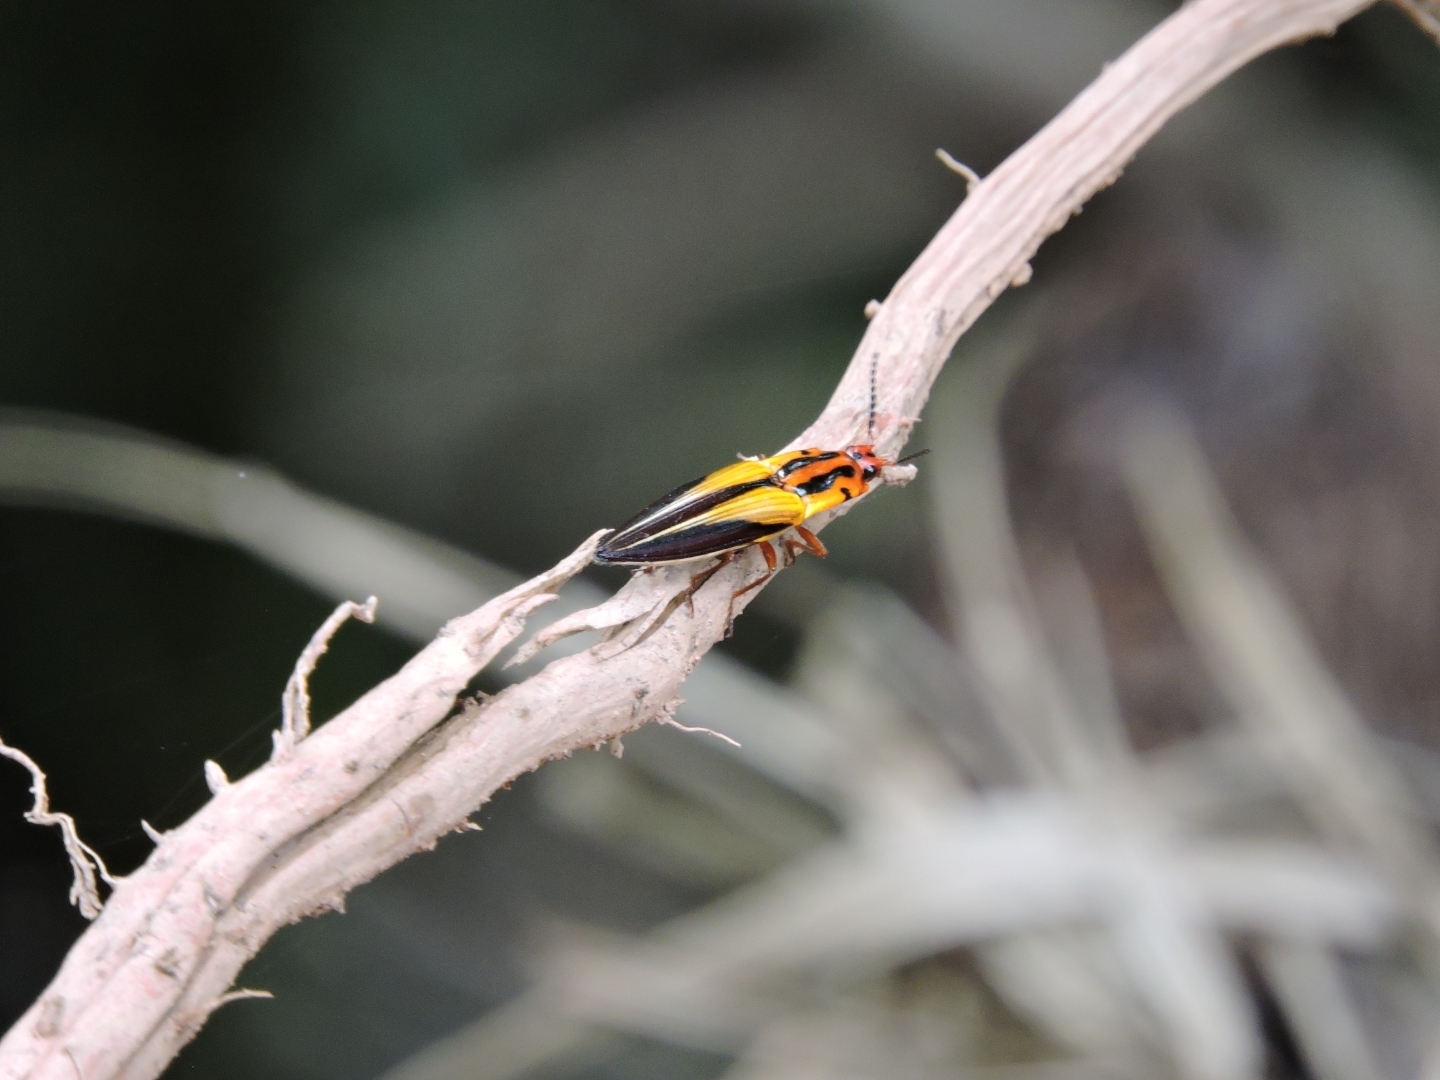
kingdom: Animalia
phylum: Arthropoda
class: Insecta
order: Coleoptera
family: Elateridae
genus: Semiotus
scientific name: Semiotus intermedius
